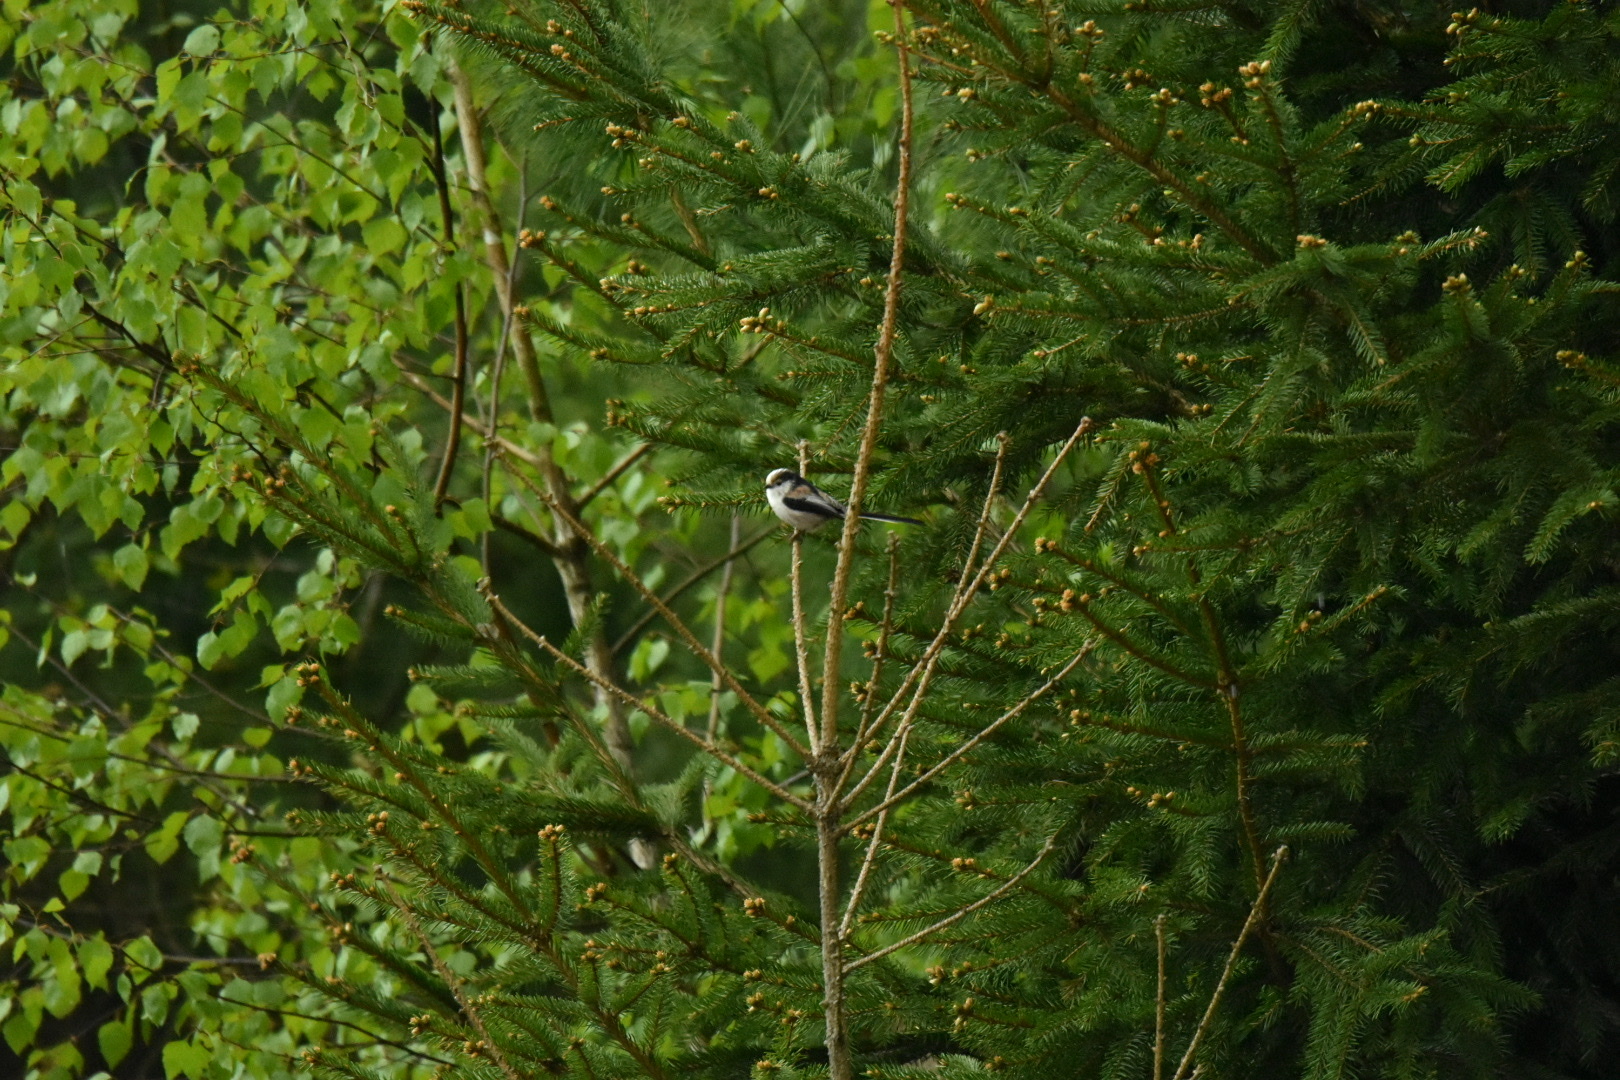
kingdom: Animalia
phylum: Chordata
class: Aves
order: Passeriformes
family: Aegithalidae
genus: Aegithalos
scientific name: Aegithalos caudatus
